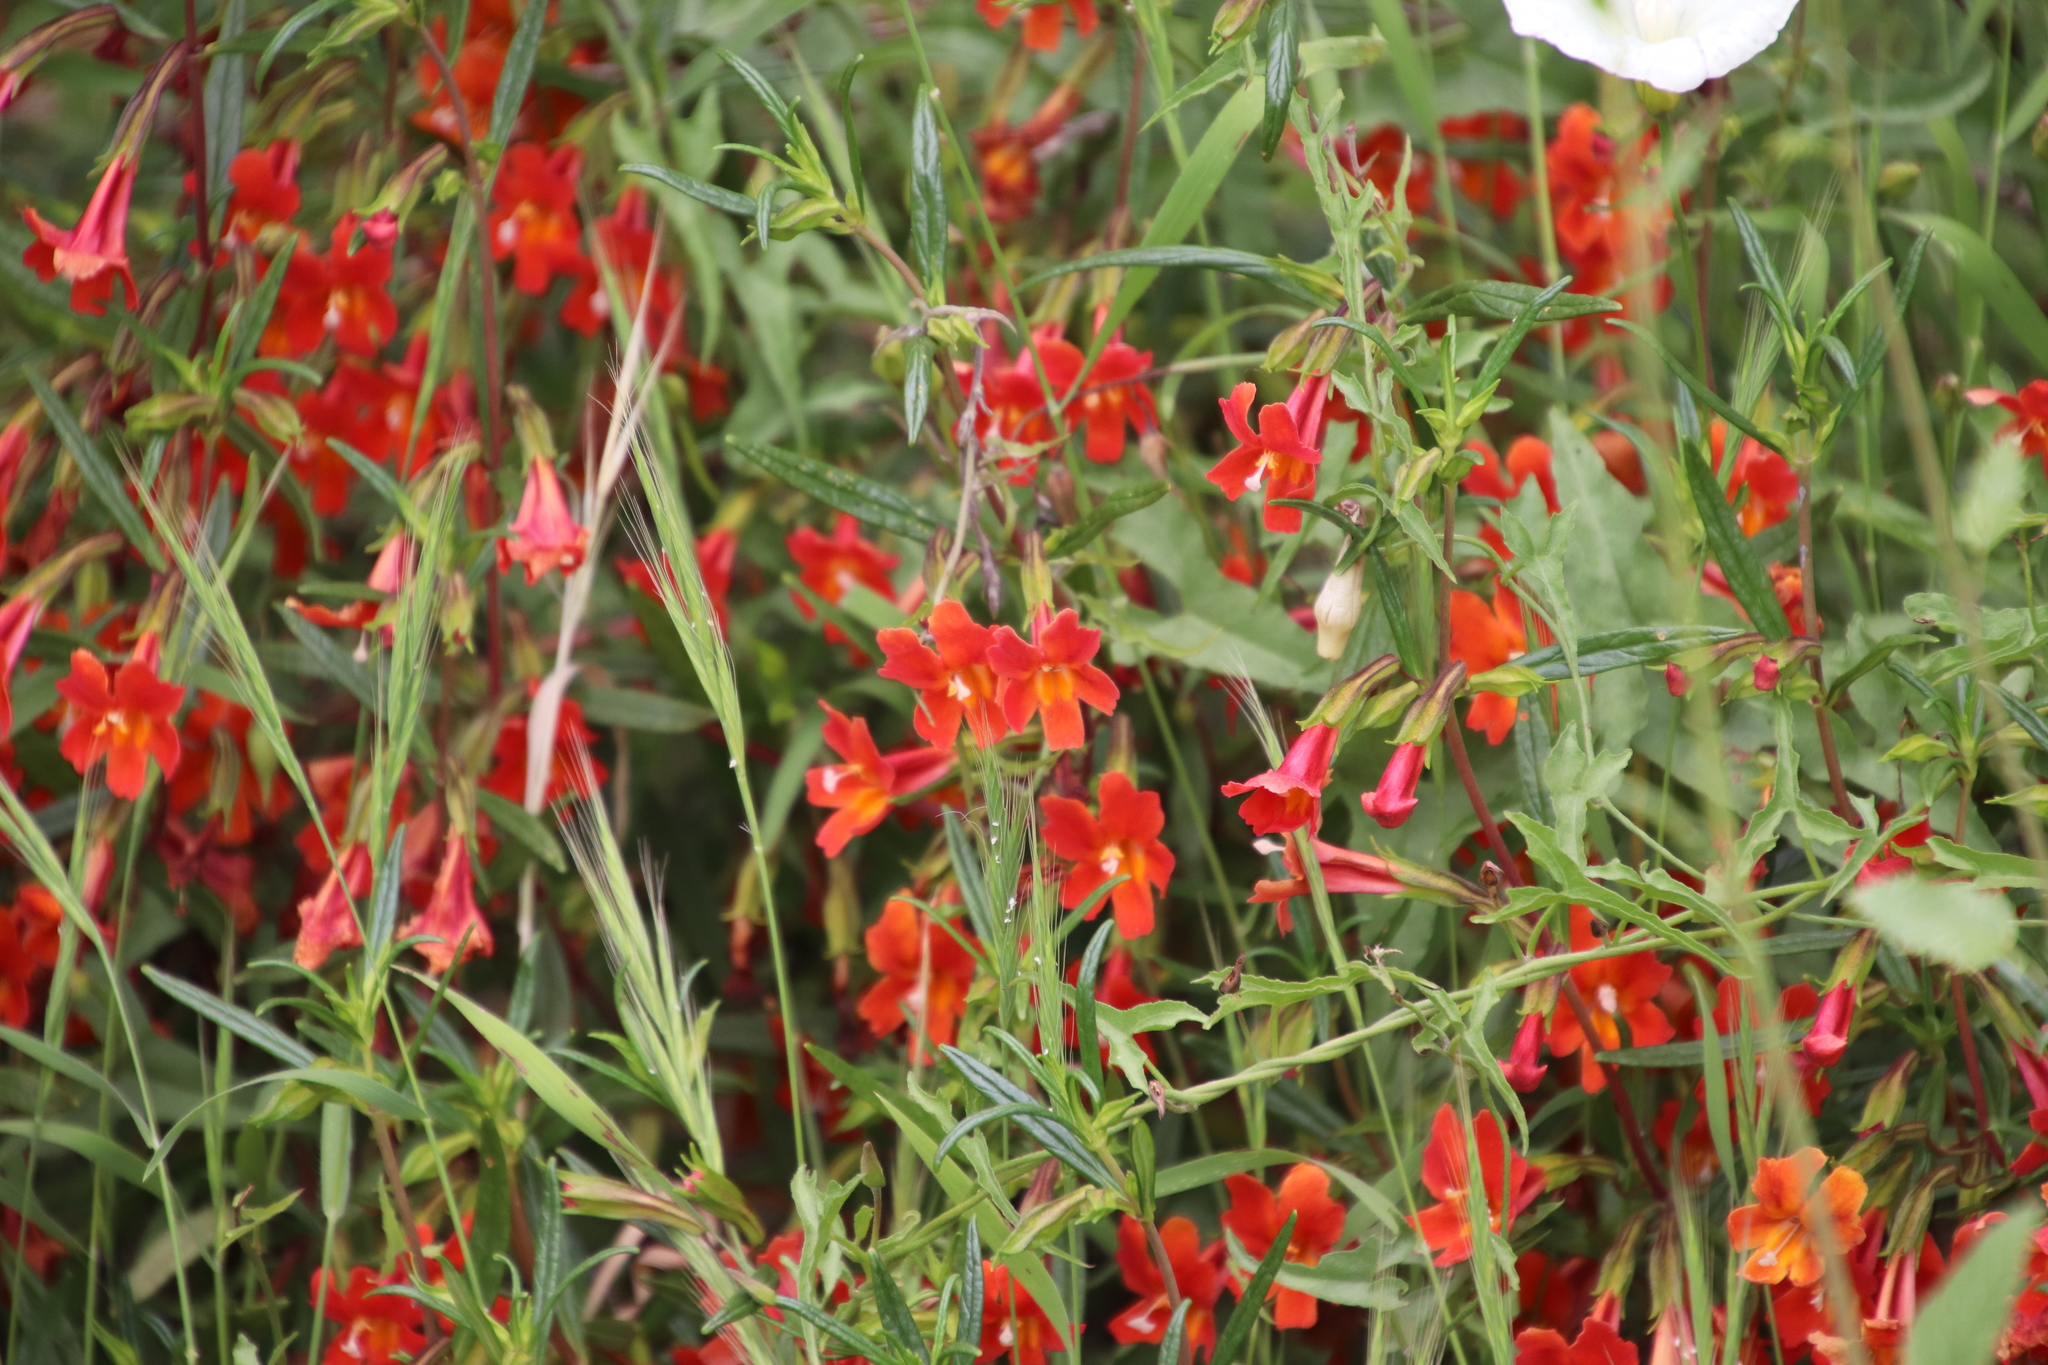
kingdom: Plantae
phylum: Tracheophyta
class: Magnoliopsida
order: Lamiales
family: Phrymaceae
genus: Diplacus
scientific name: Diplacus puniceus
